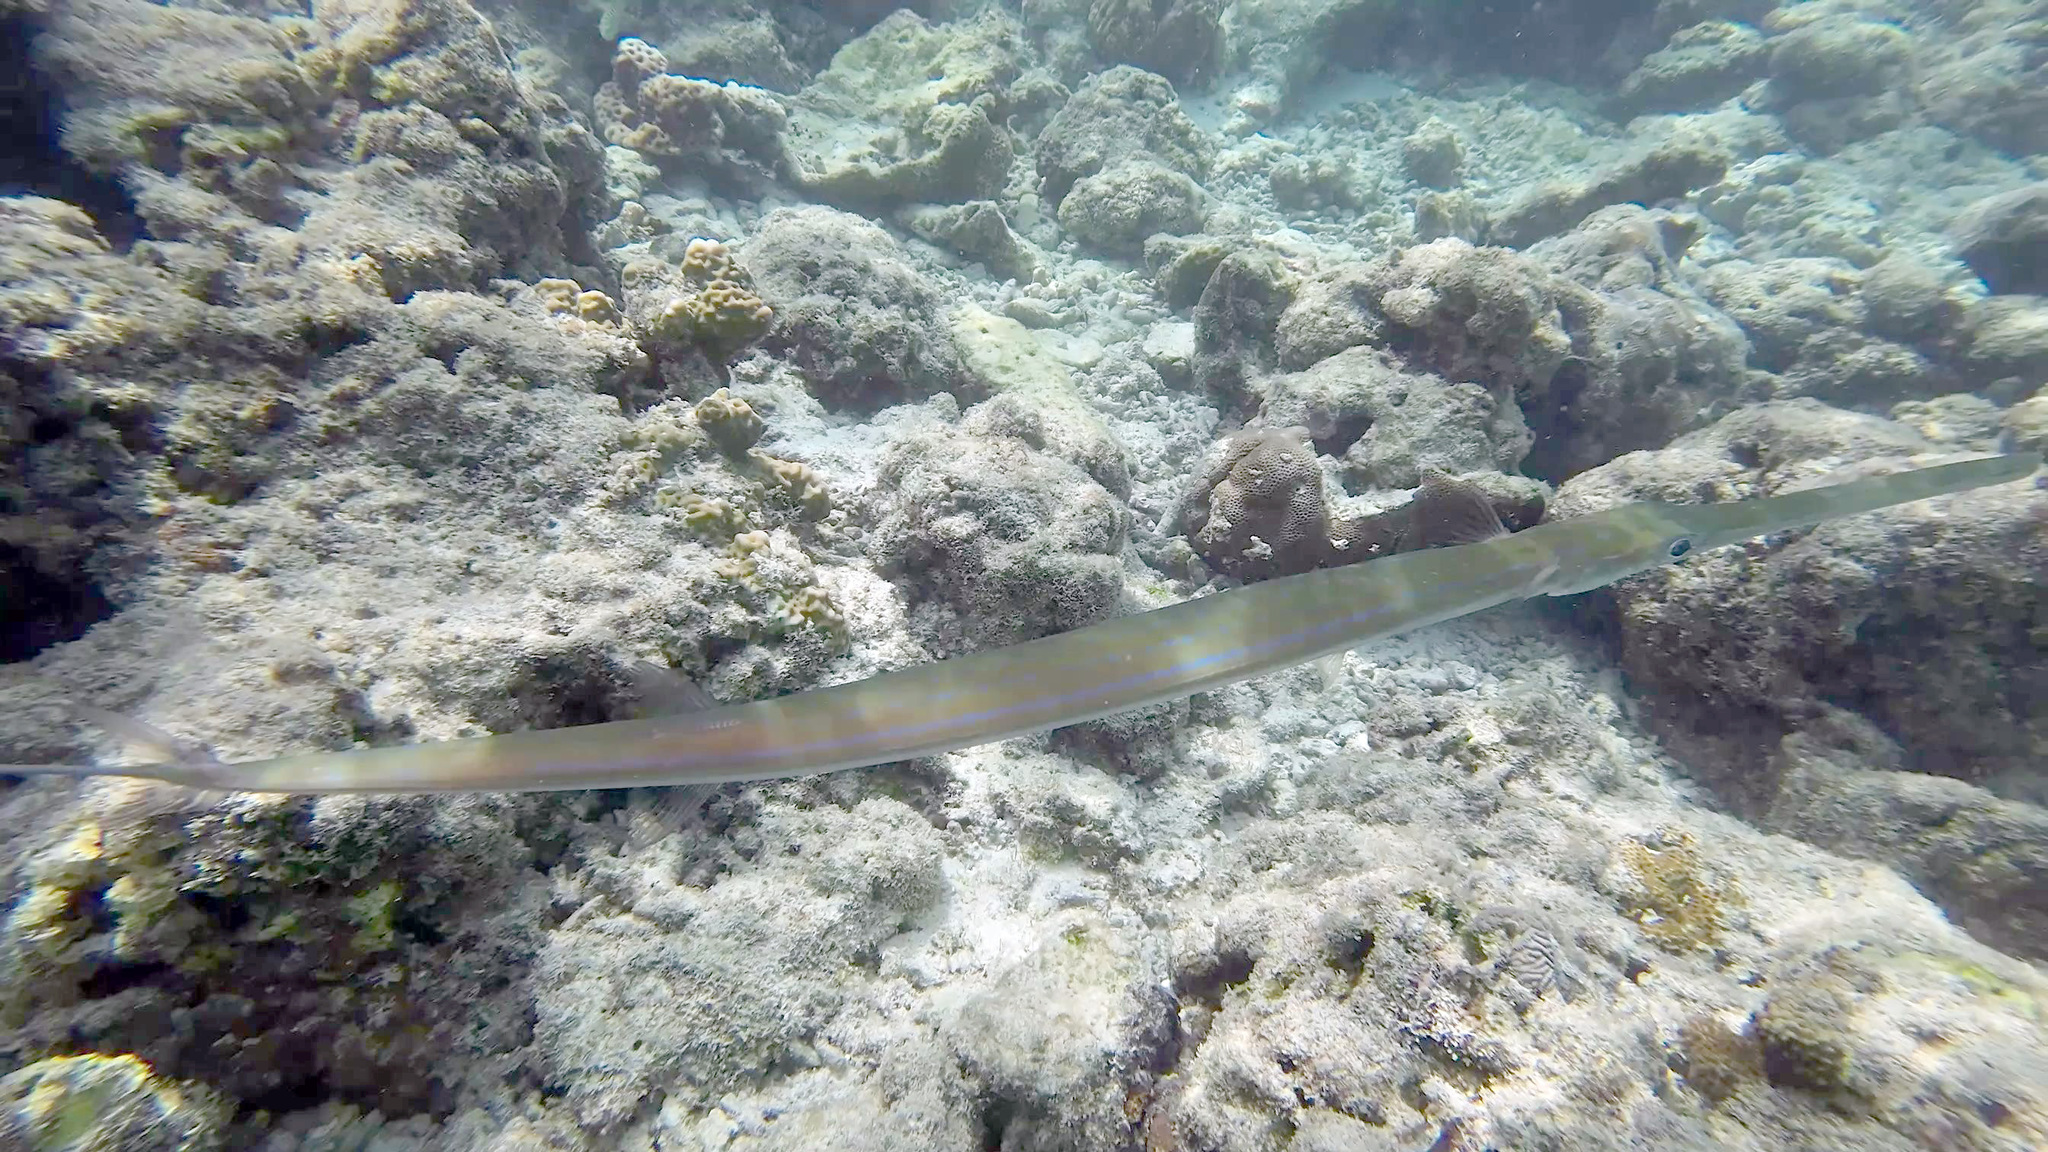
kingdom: Animalia
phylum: Chordata
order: Syngnathiformes
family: Fistulariidae
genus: Fistularia
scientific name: Fistularia commersonii
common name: Bluespotted cornetfish
